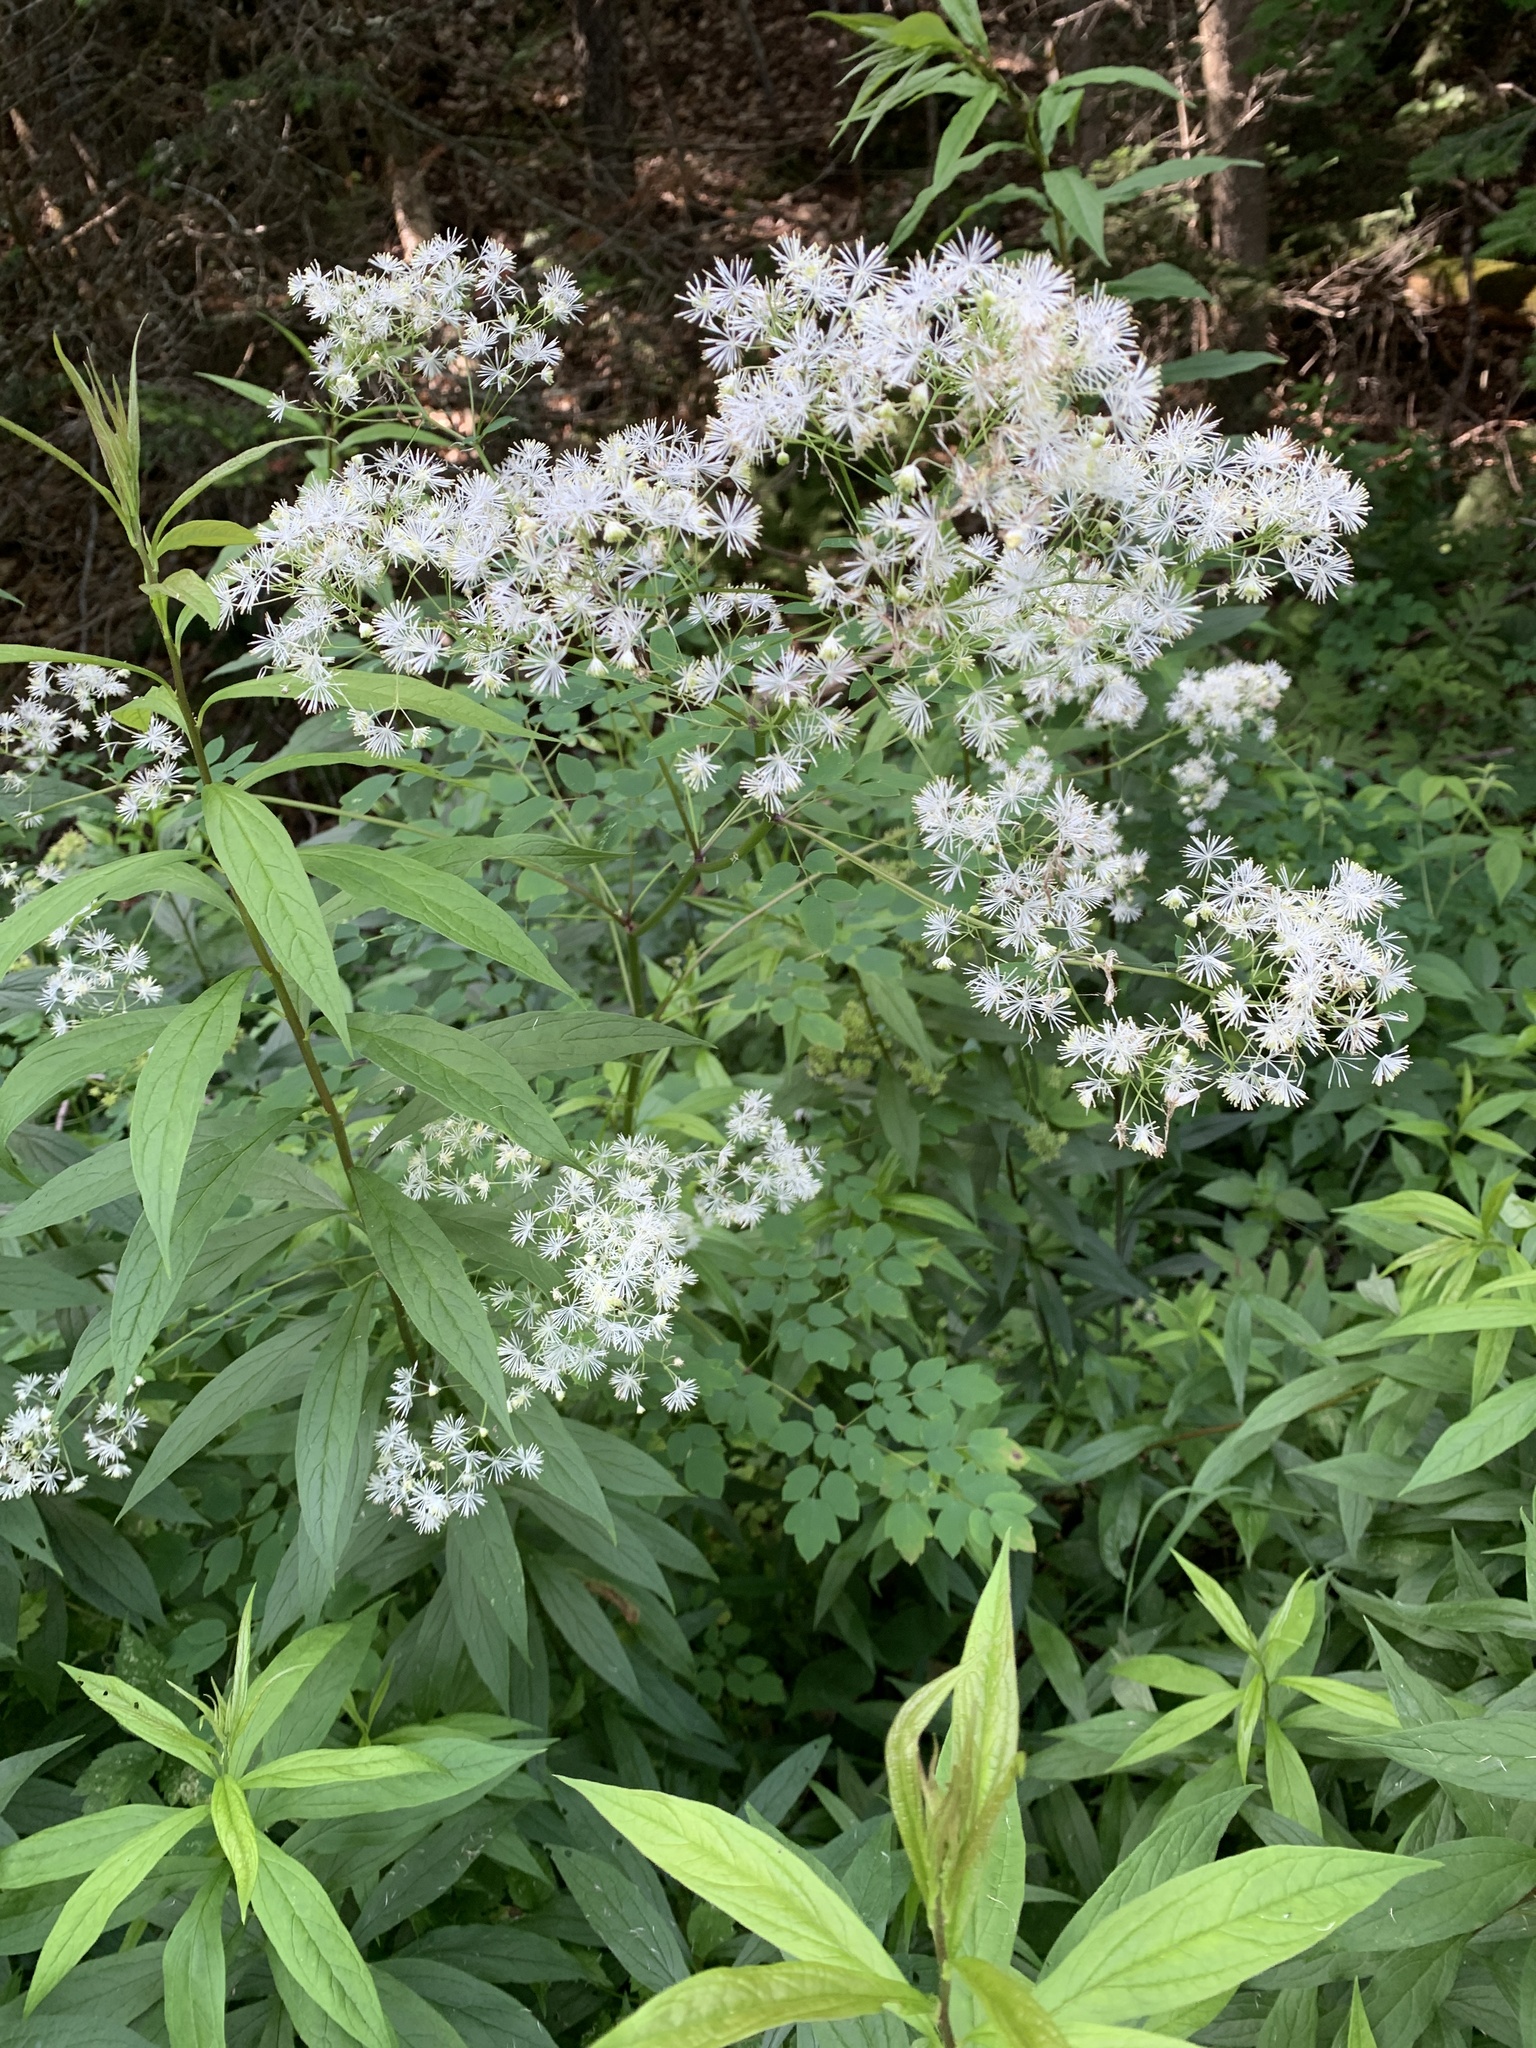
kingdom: Plantae
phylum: Tracheophyta
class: Magnoliopsida
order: Ranunculales
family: Ranunculaceae
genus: Thalictrum
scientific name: Thalictrum pubescens
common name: King-of-the-meadow
